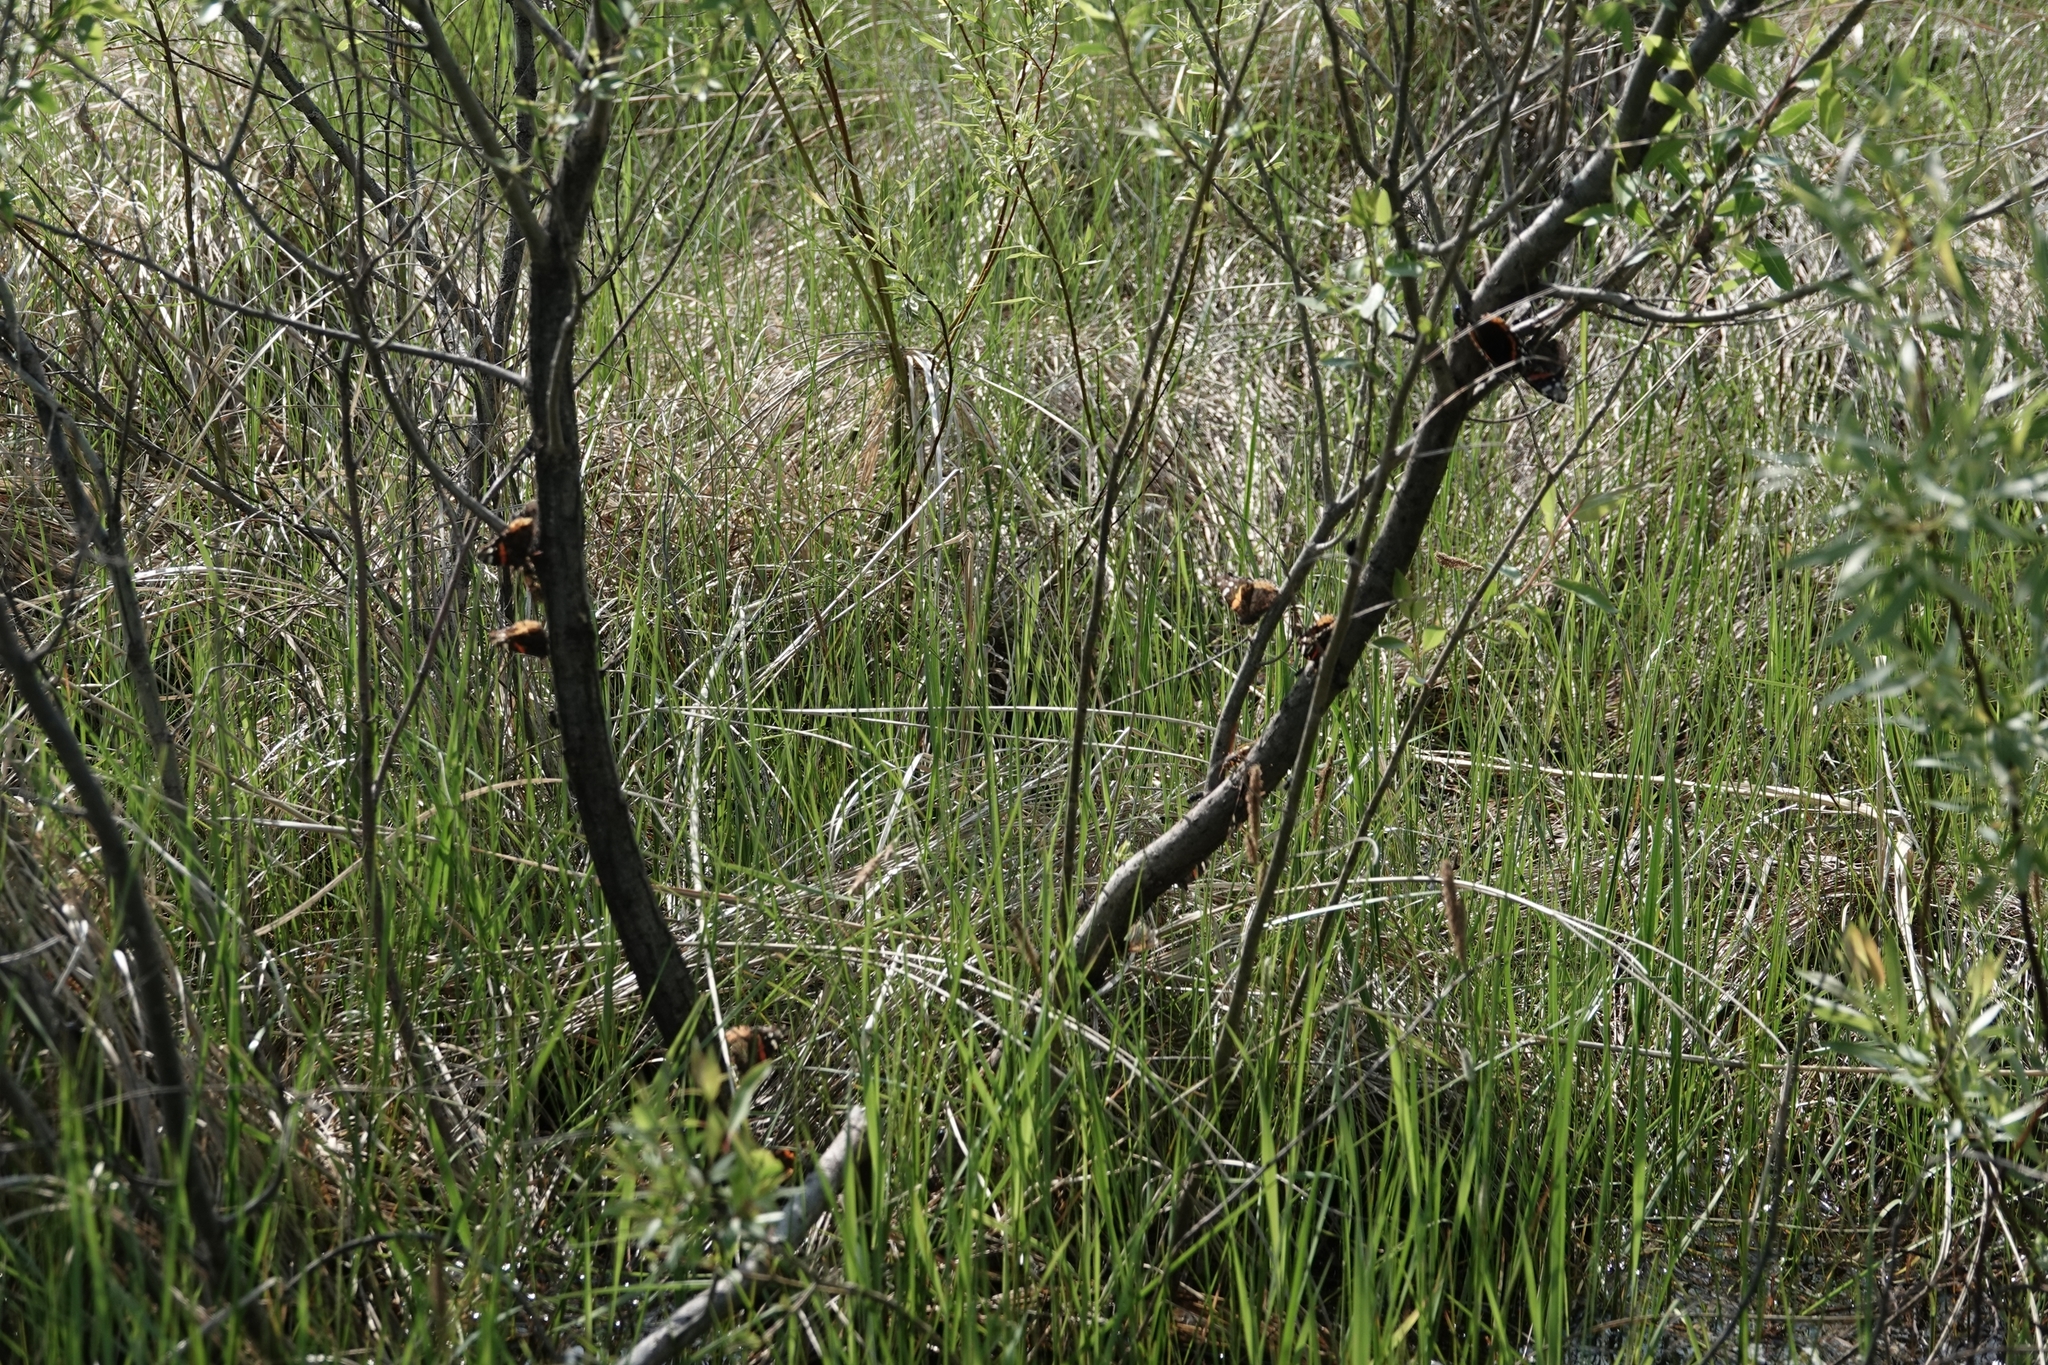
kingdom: Animalia
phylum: Arthropoda
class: Insecta
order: Lepidoptera
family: Nymphalidae
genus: Vanessa
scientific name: Vanessa atalanta
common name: Red admiral
